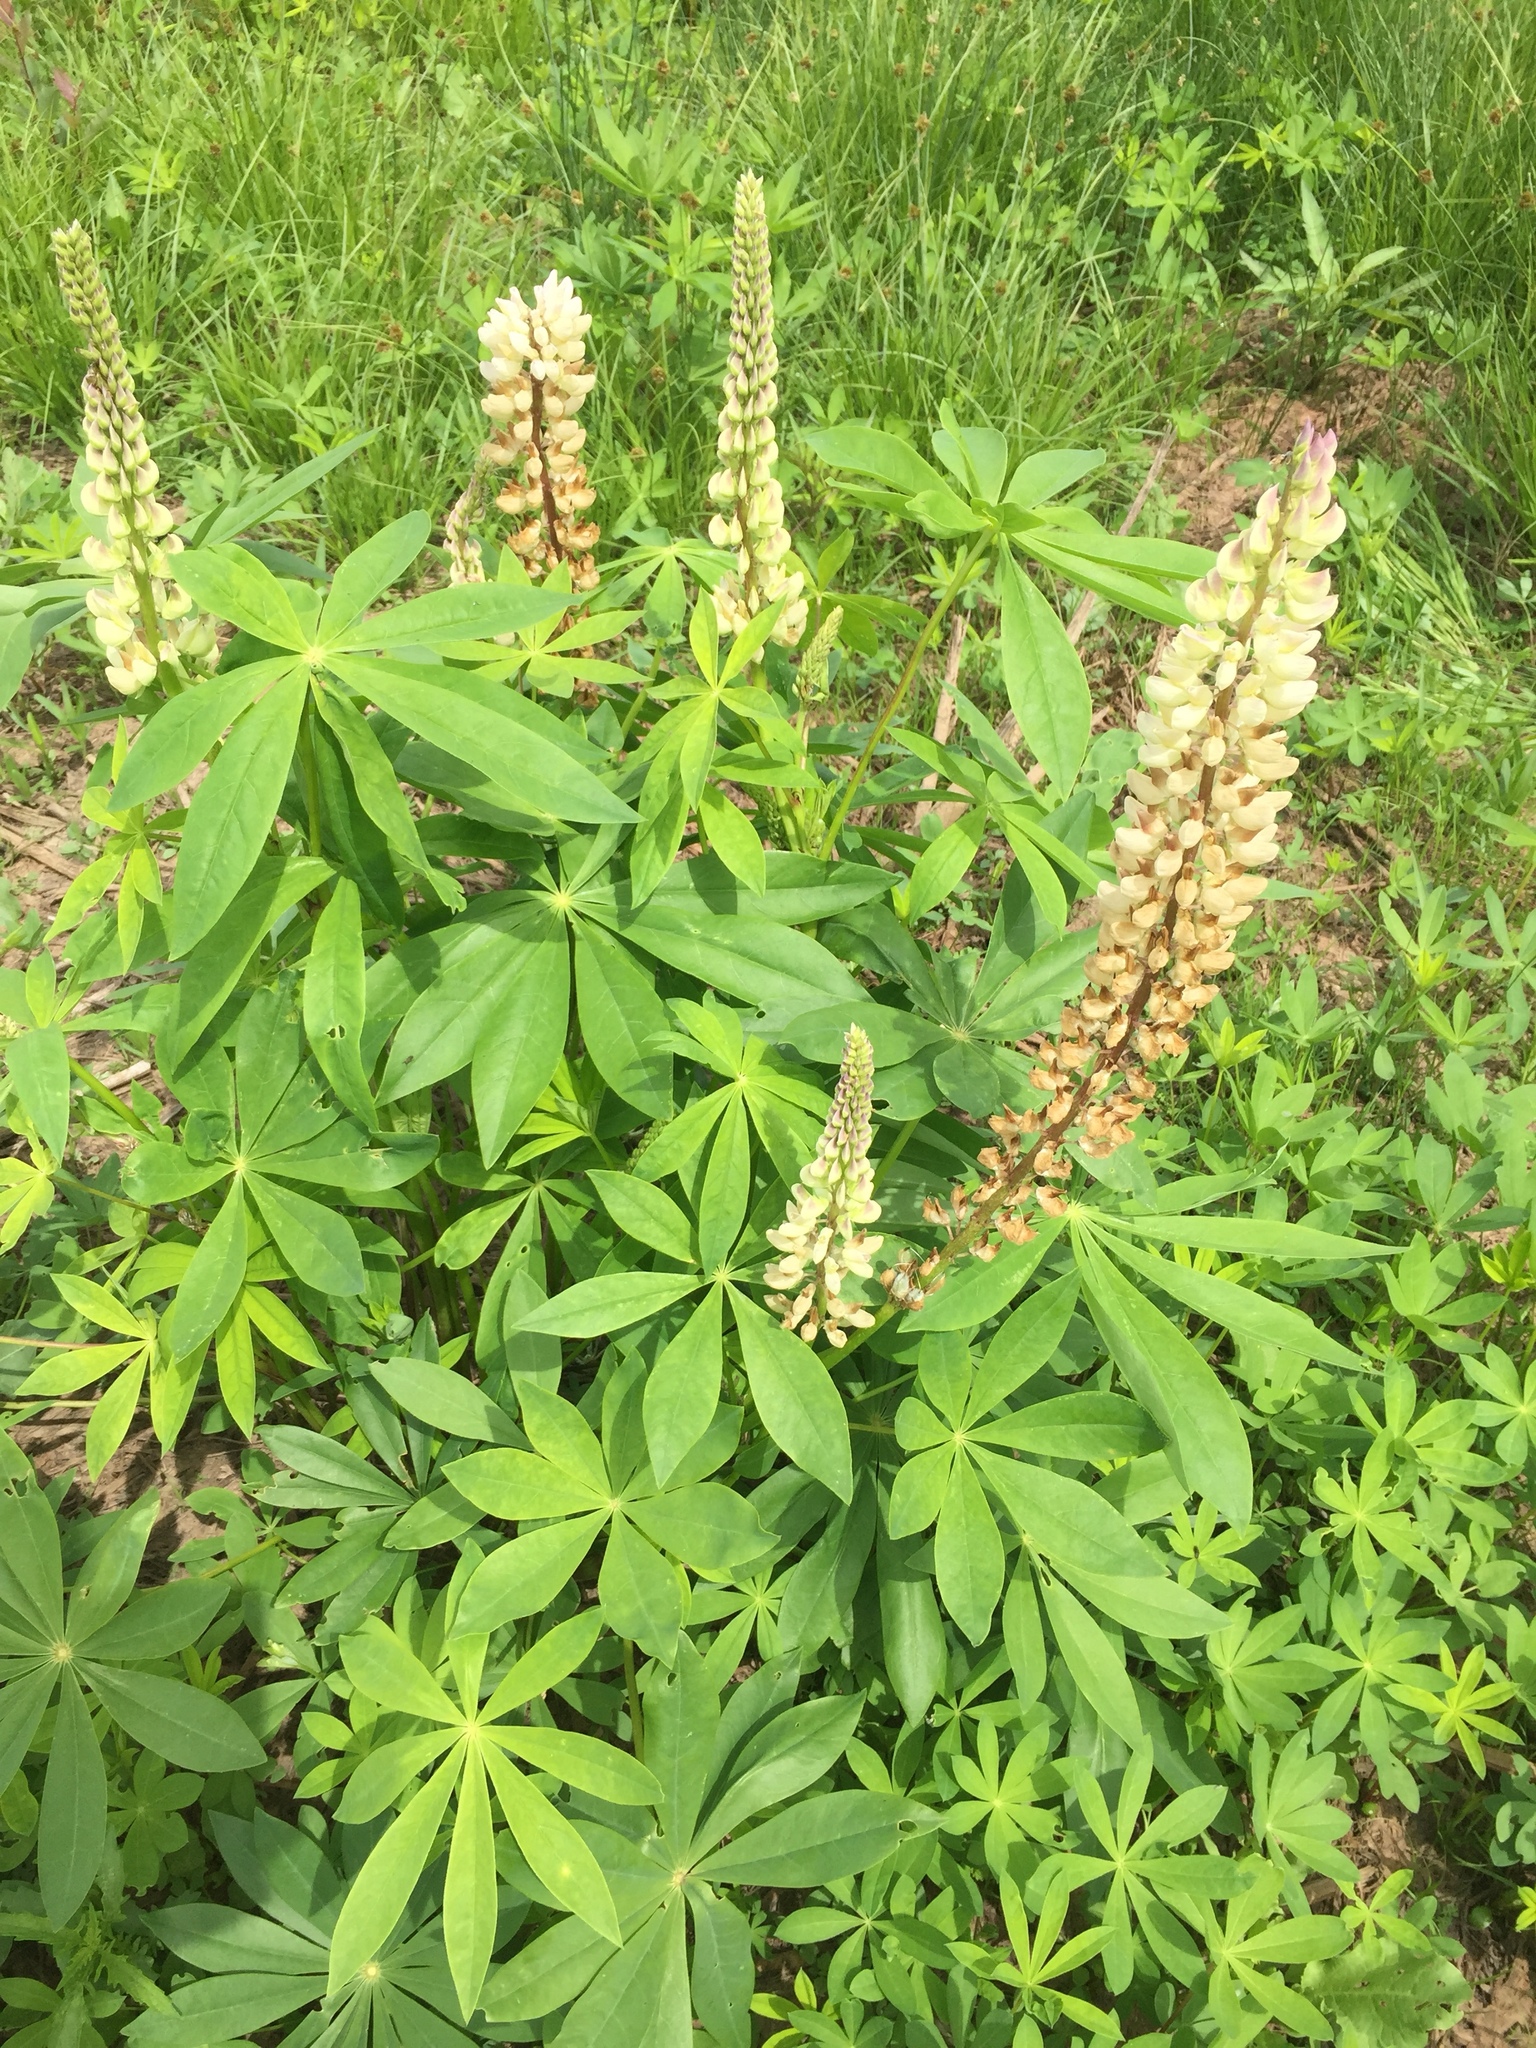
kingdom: Plantae
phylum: Tracheophyta
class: Magnoliopsida
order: Fabales
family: Fabaceae
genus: Lupinus
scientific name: Lupinus polyphyllus
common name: Garden lupin
